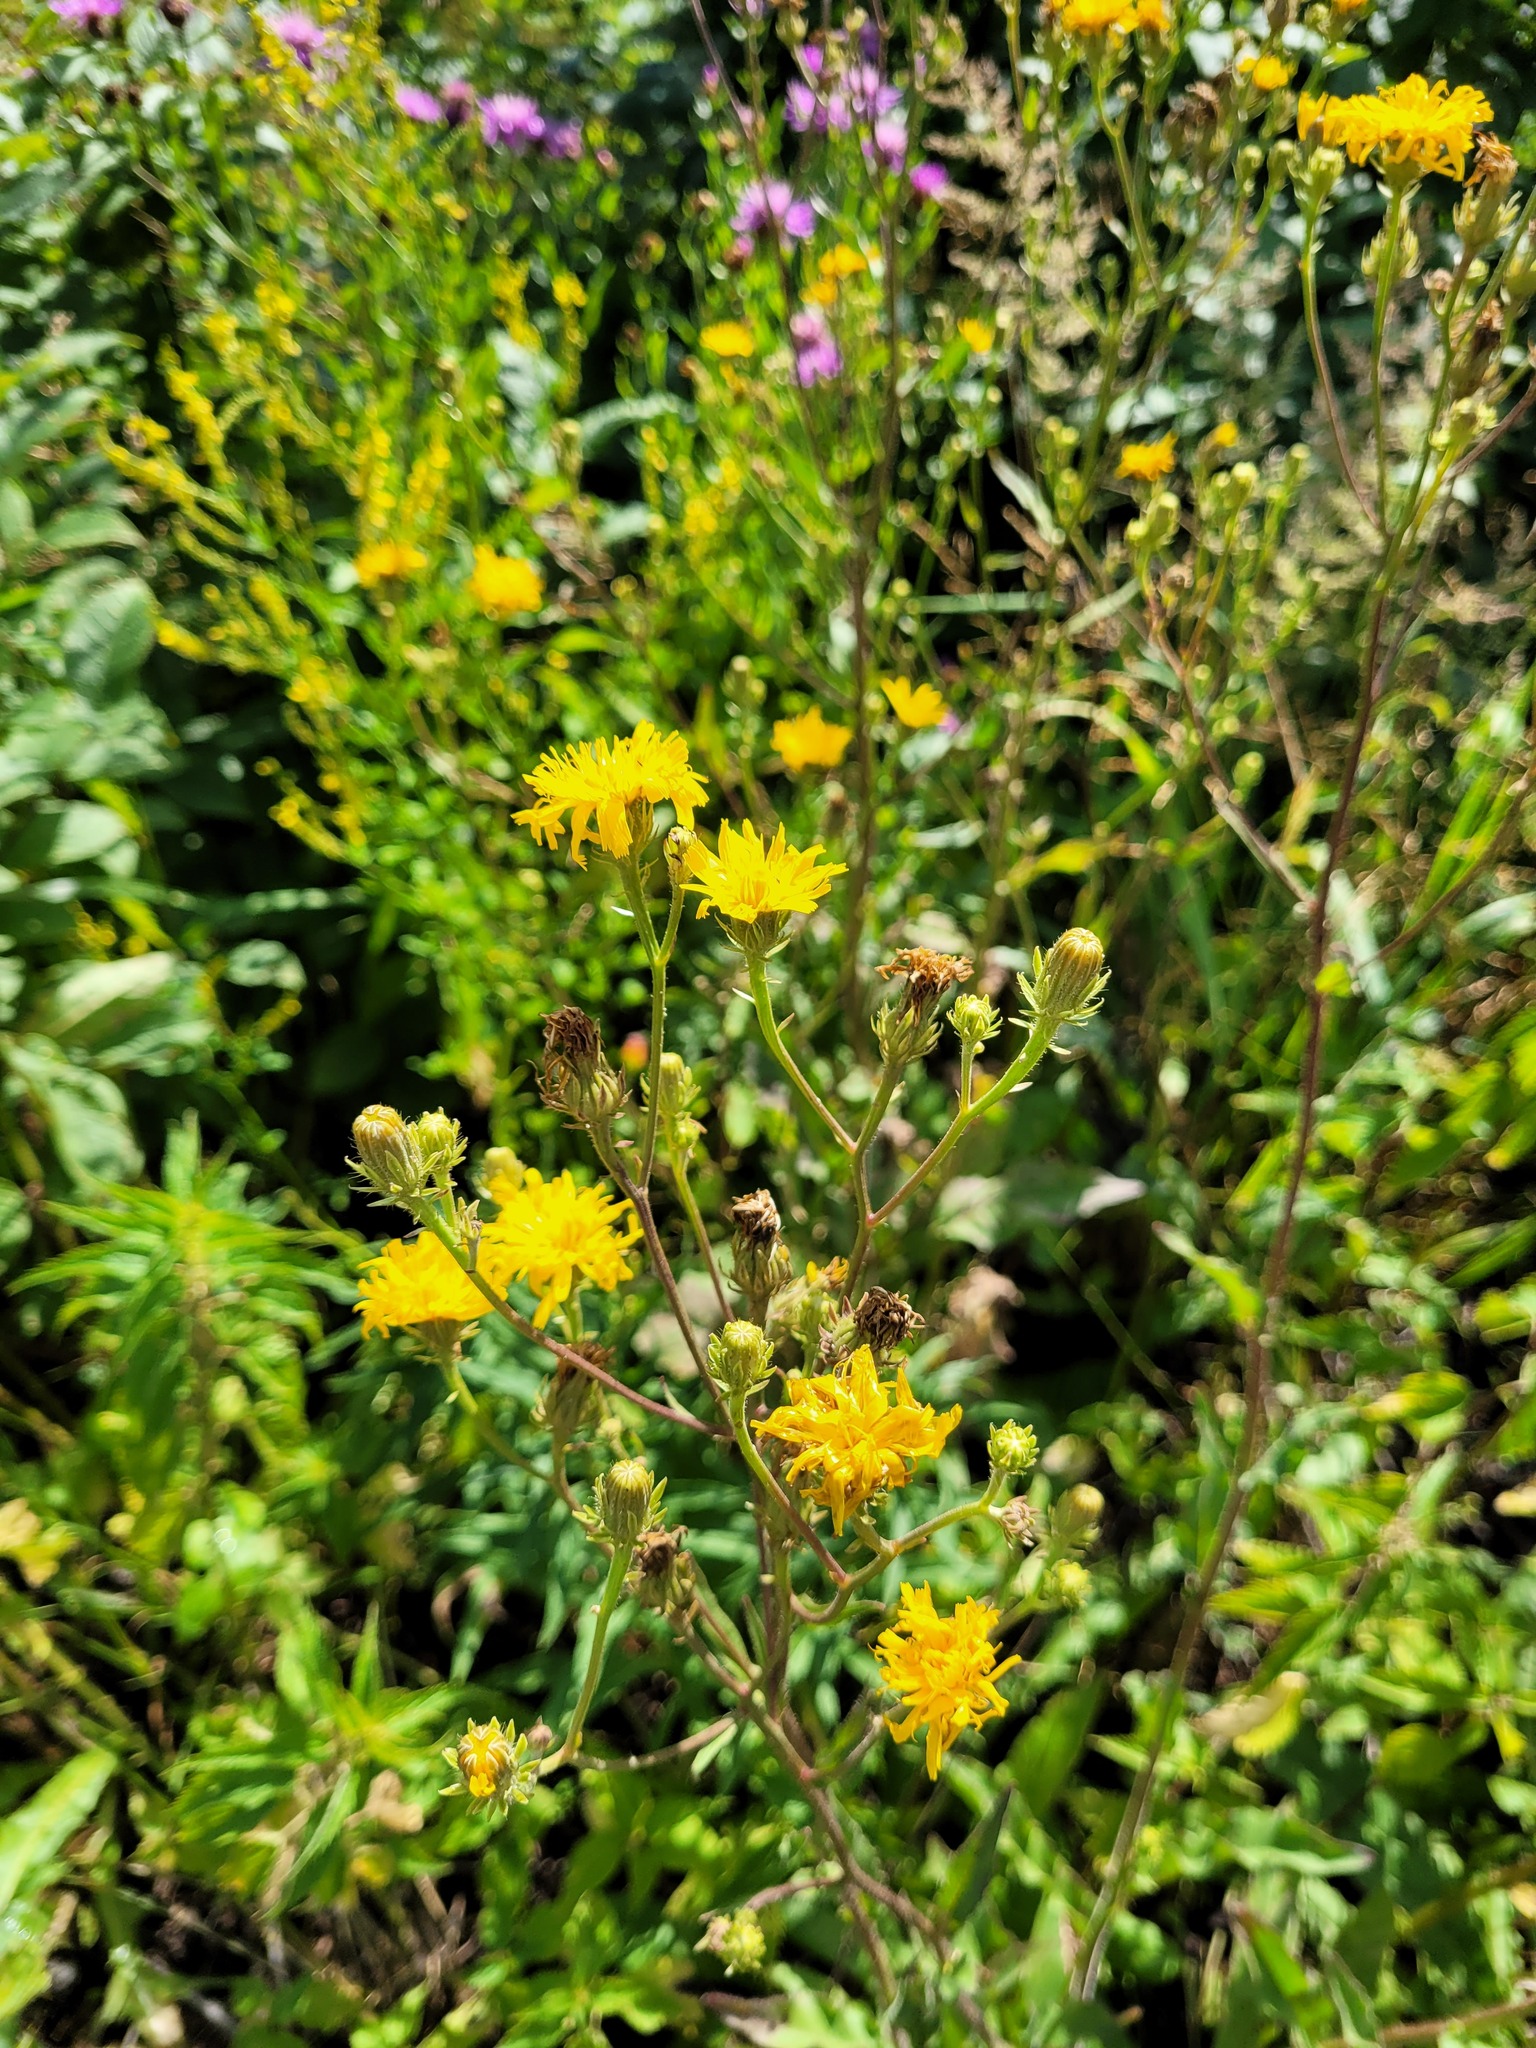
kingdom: Plantae
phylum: Tracheophyta
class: Magnoliopsida
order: Asterales
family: Asteraceae
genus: Picris
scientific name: Picris hieracioides
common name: Hawkweed oxtongue
